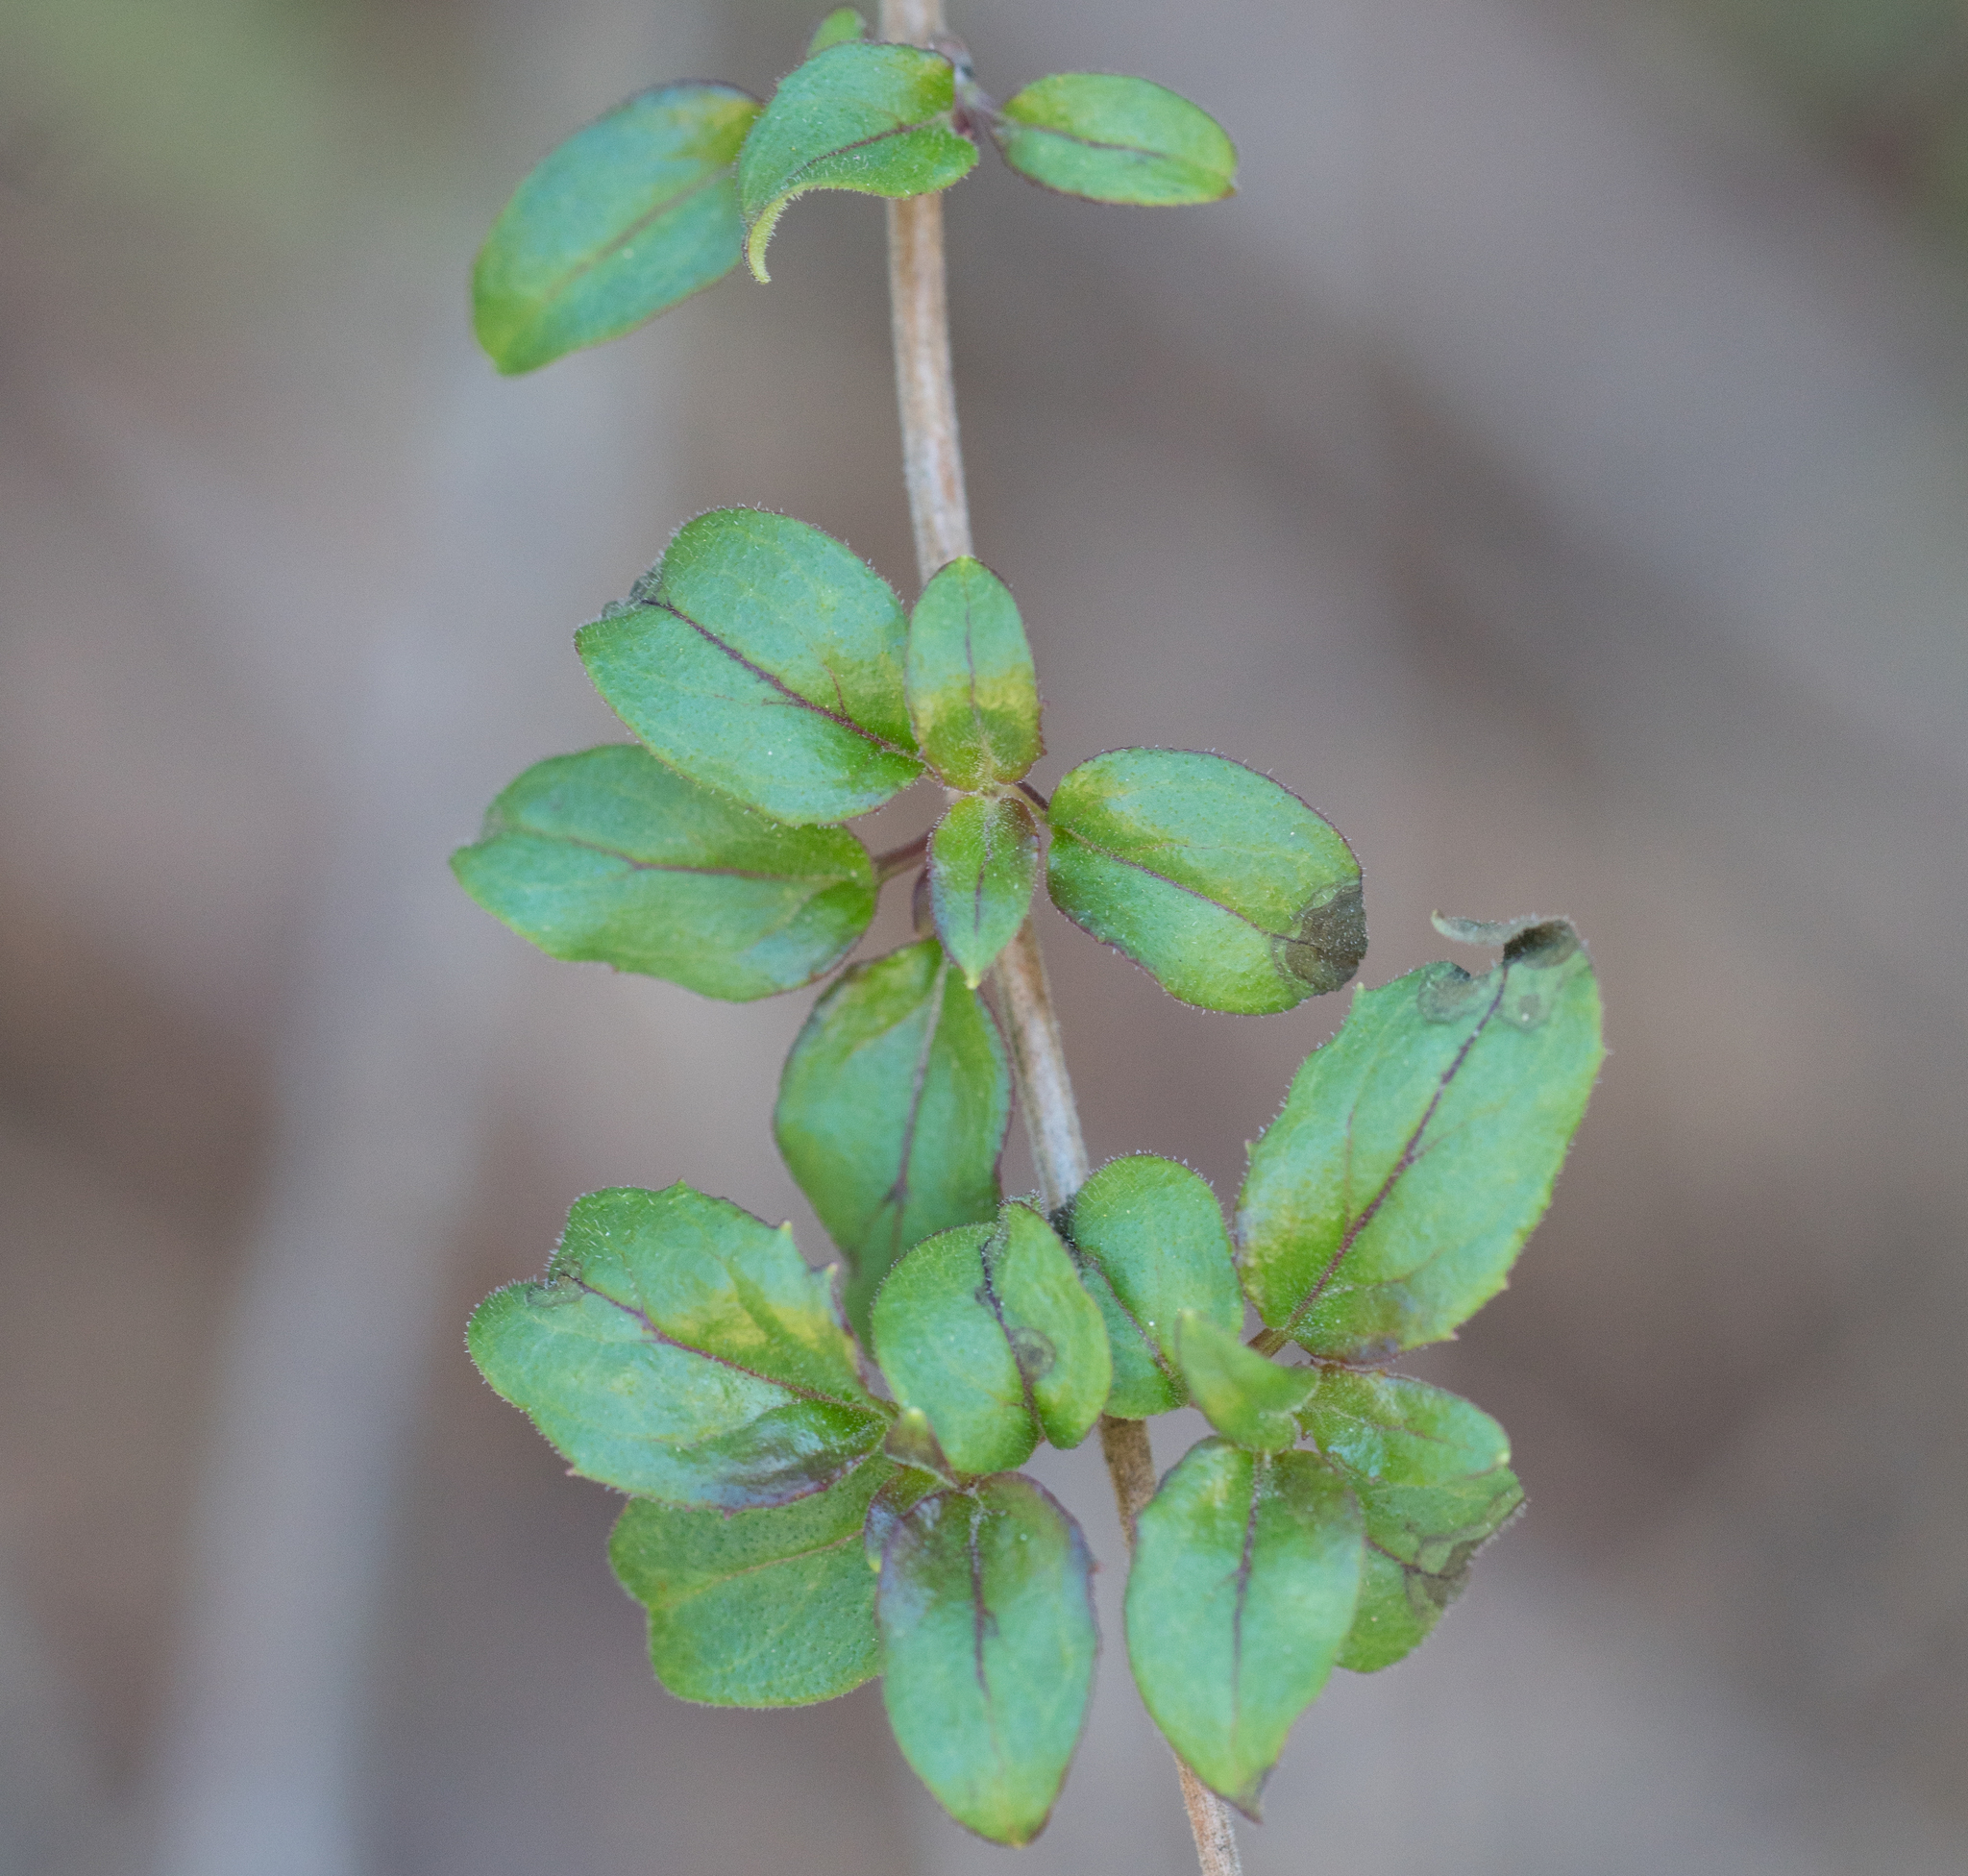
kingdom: Plantae
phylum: Tracheophyta
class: Magnoliopsida
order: Lamiales
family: Plantaginaceae
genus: Keckiella
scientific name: Keckiella cordifolia
